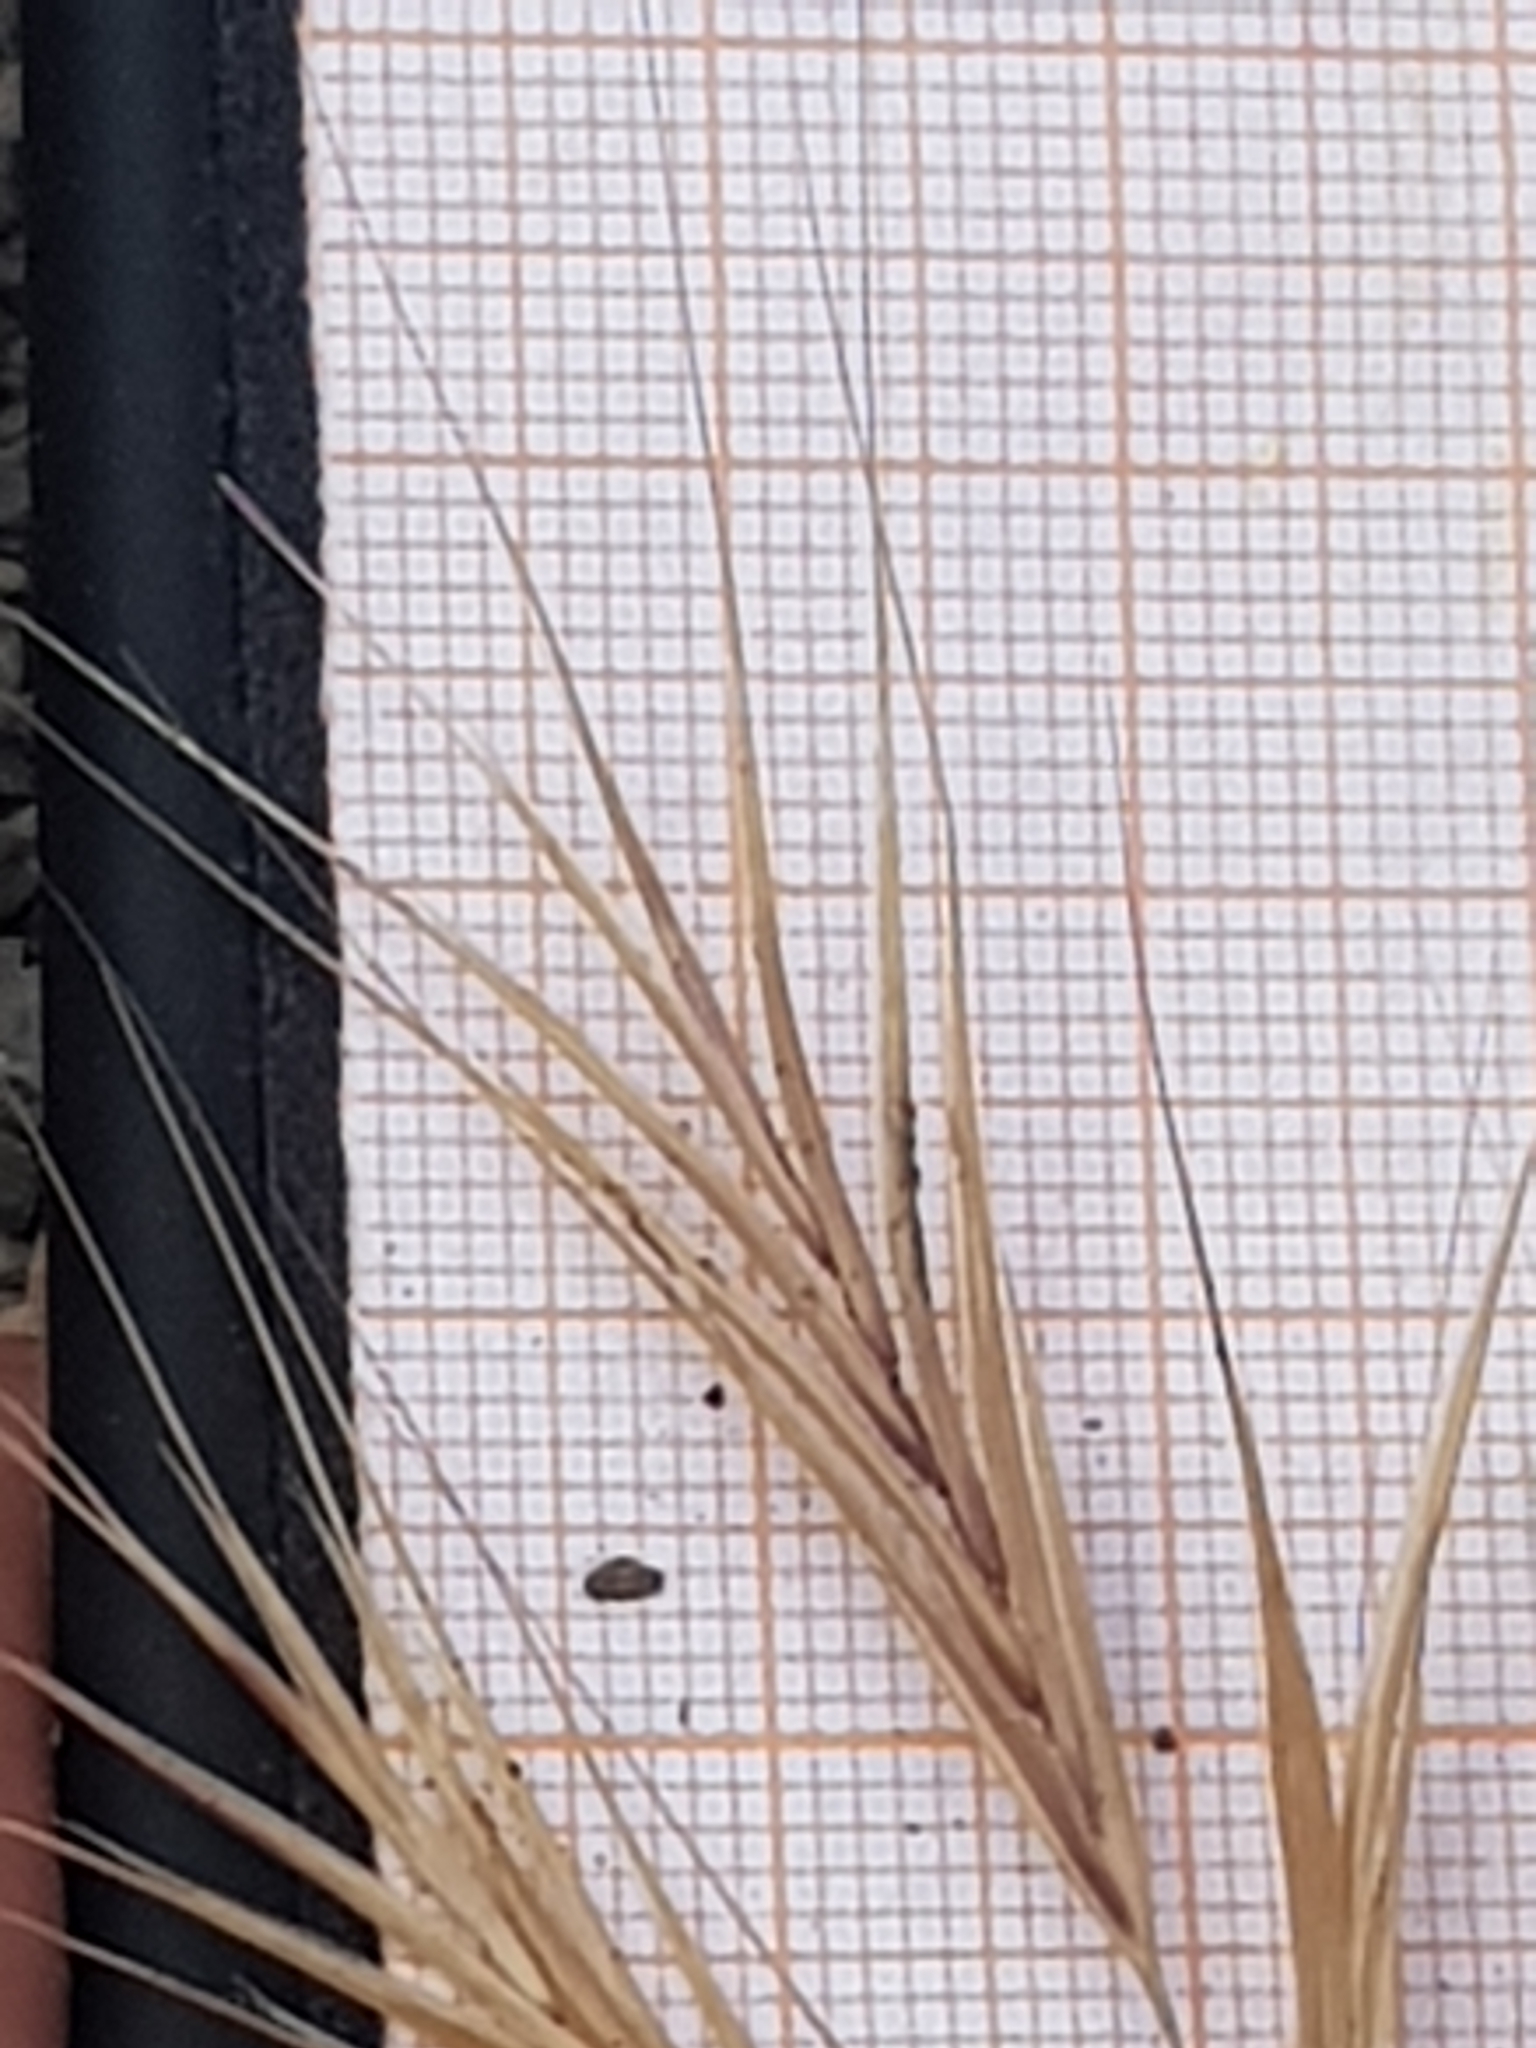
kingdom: Plantae
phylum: Tracheophyta
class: Liliopsida
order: Poales
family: Poaceae
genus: Bromus
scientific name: Bromus madritensis
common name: Compact brome
